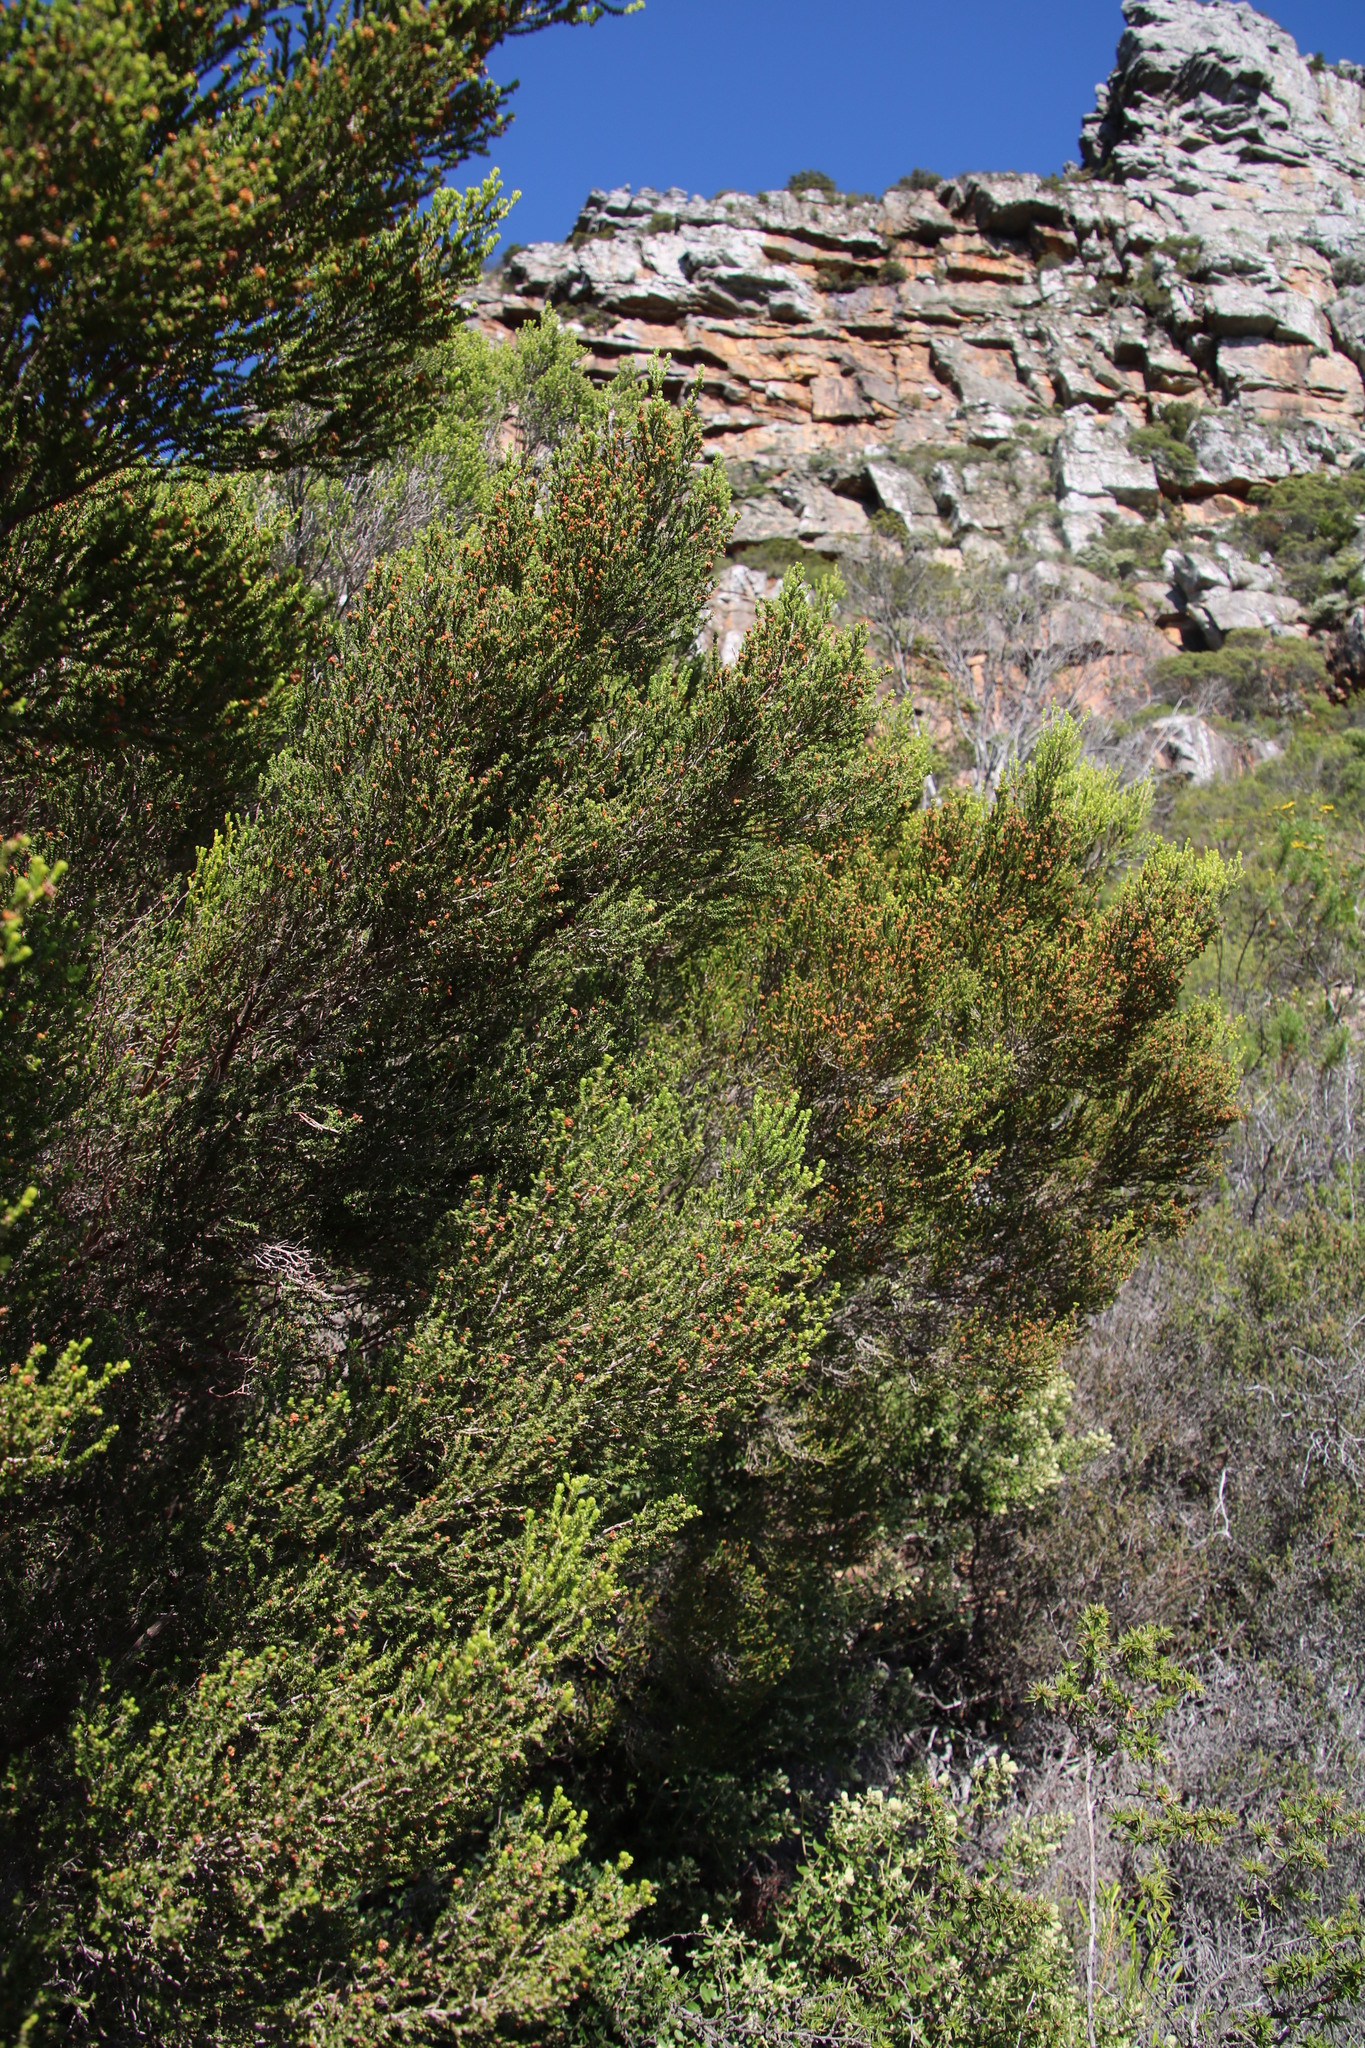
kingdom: Plantae
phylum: Tracheophyta
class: Magnoliopsida
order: Ericales
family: Ericaceae
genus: Erica
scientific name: Erica tristis
